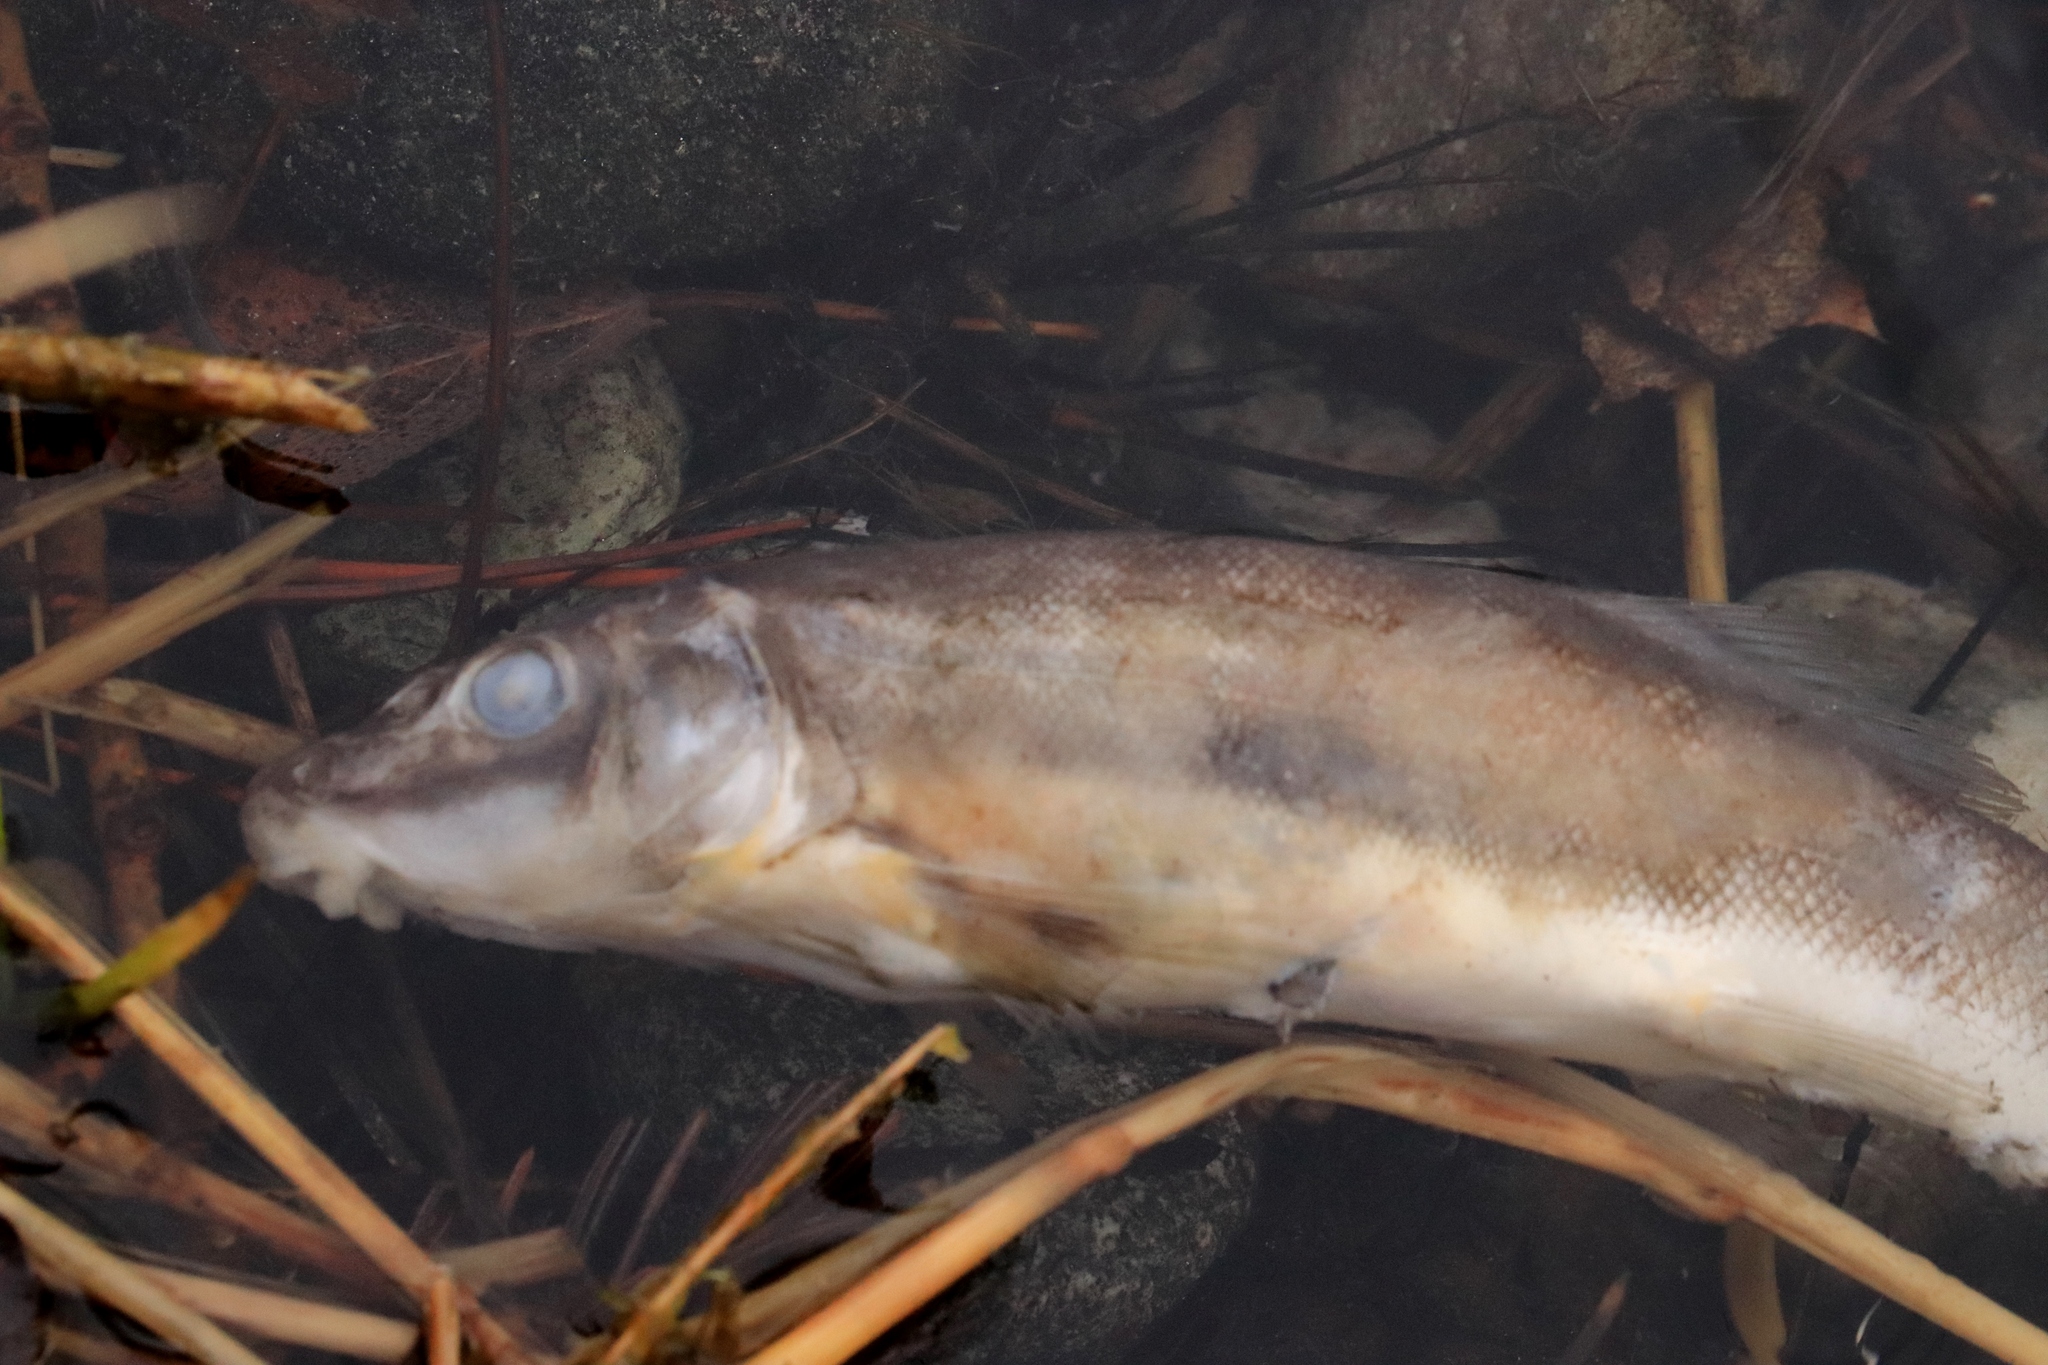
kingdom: Animalia
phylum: Chordata
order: Cypriniformes
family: Catostomidae
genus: Catostomus
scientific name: Catostomus catostomus
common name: Longnose sucker
